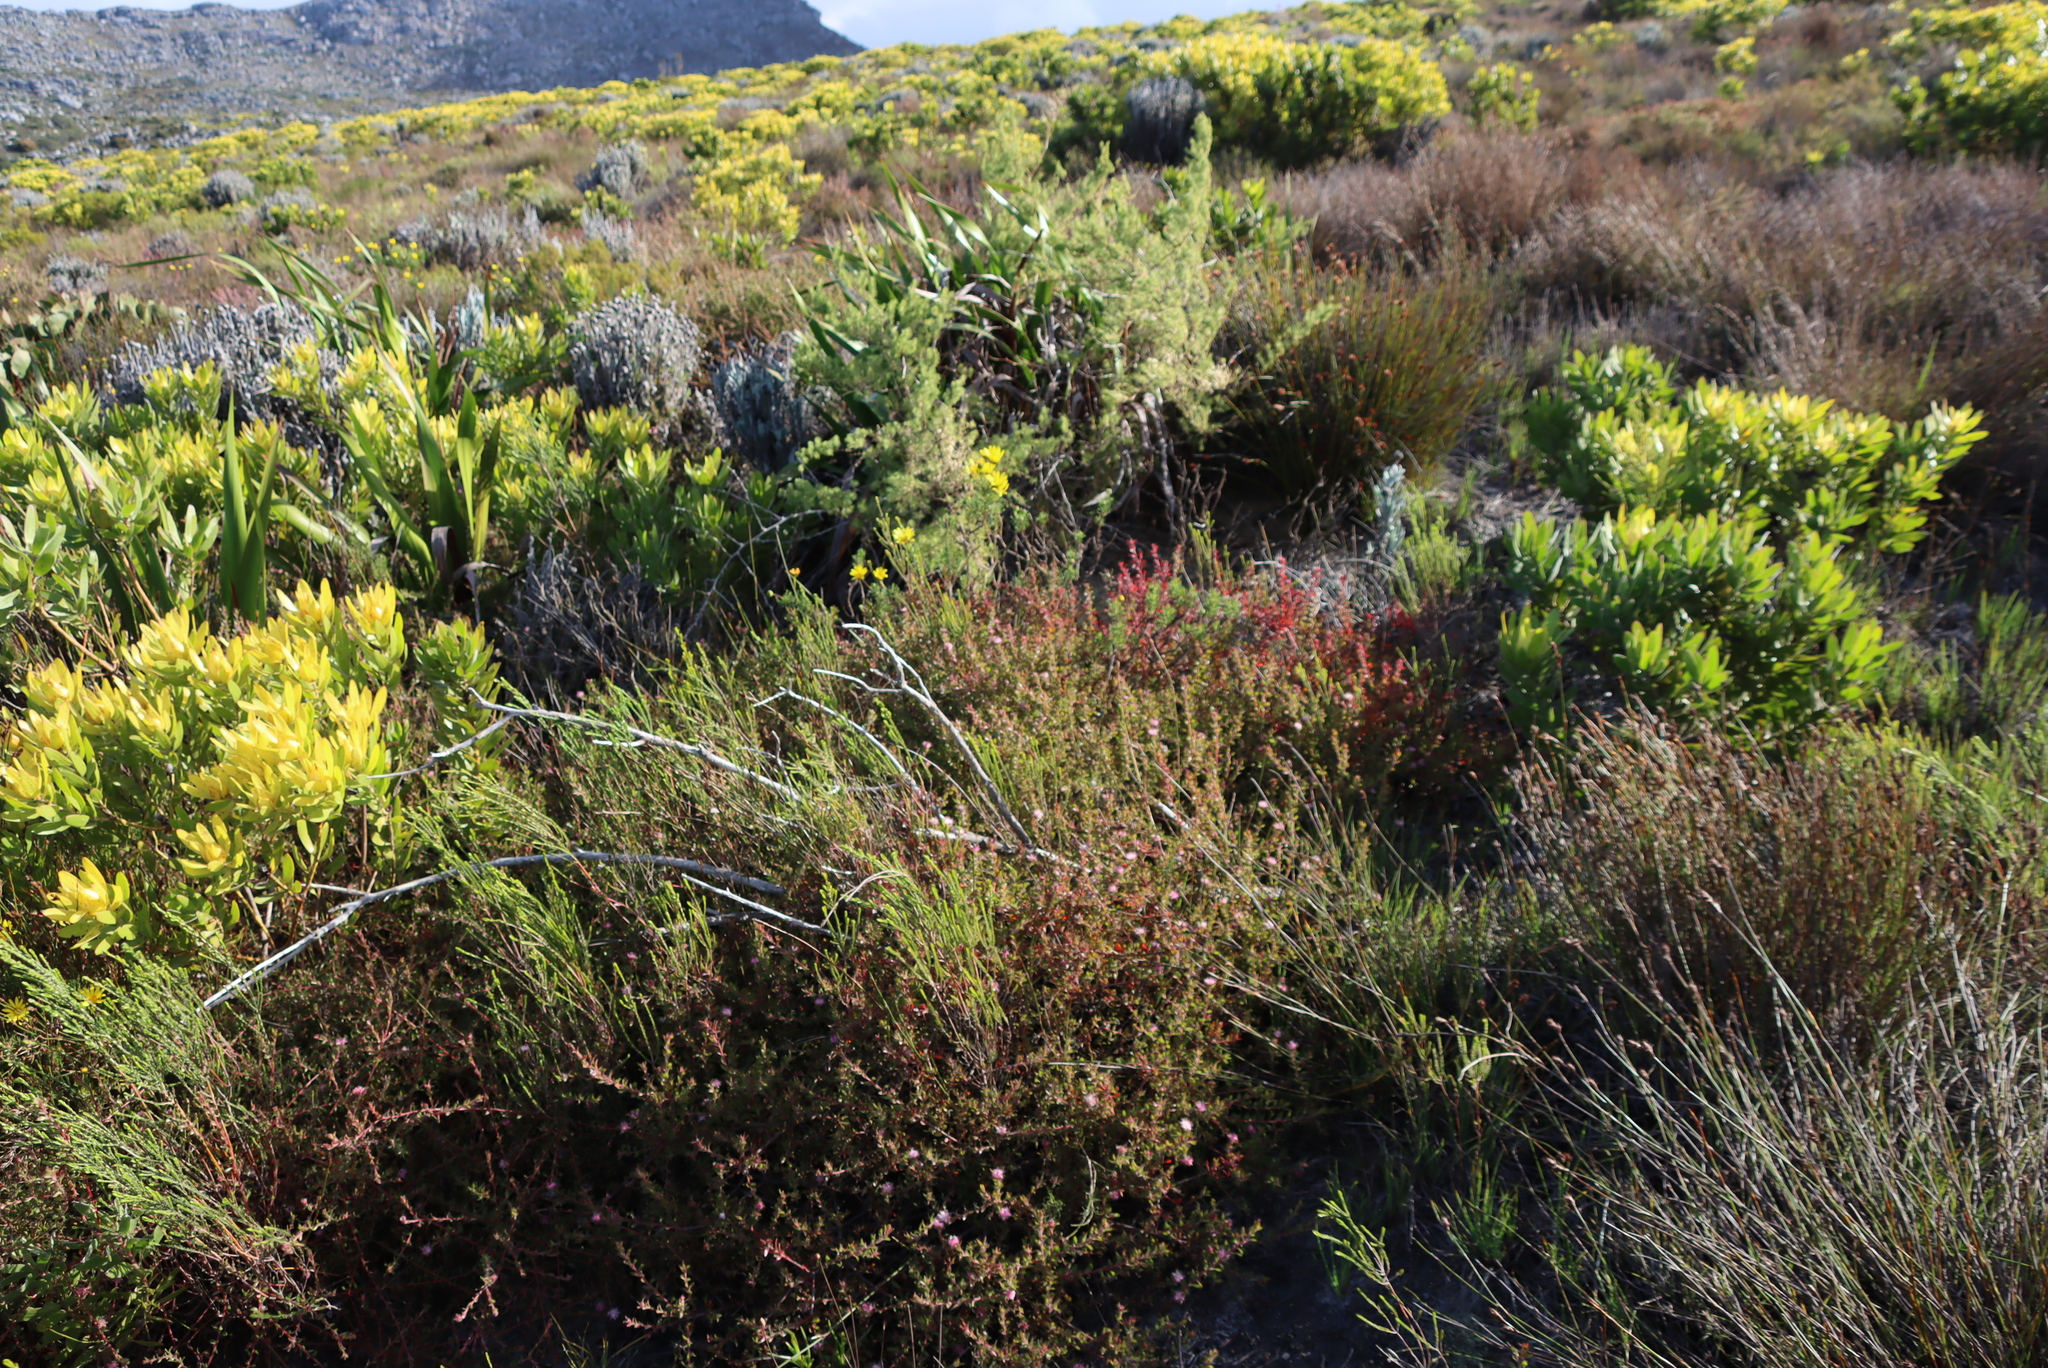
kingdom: Plantae
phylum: Tracheophyta
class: Magnoliopsida
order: Proteales
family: Proteaceae
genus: Diastella
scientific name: Diastella divaricata
